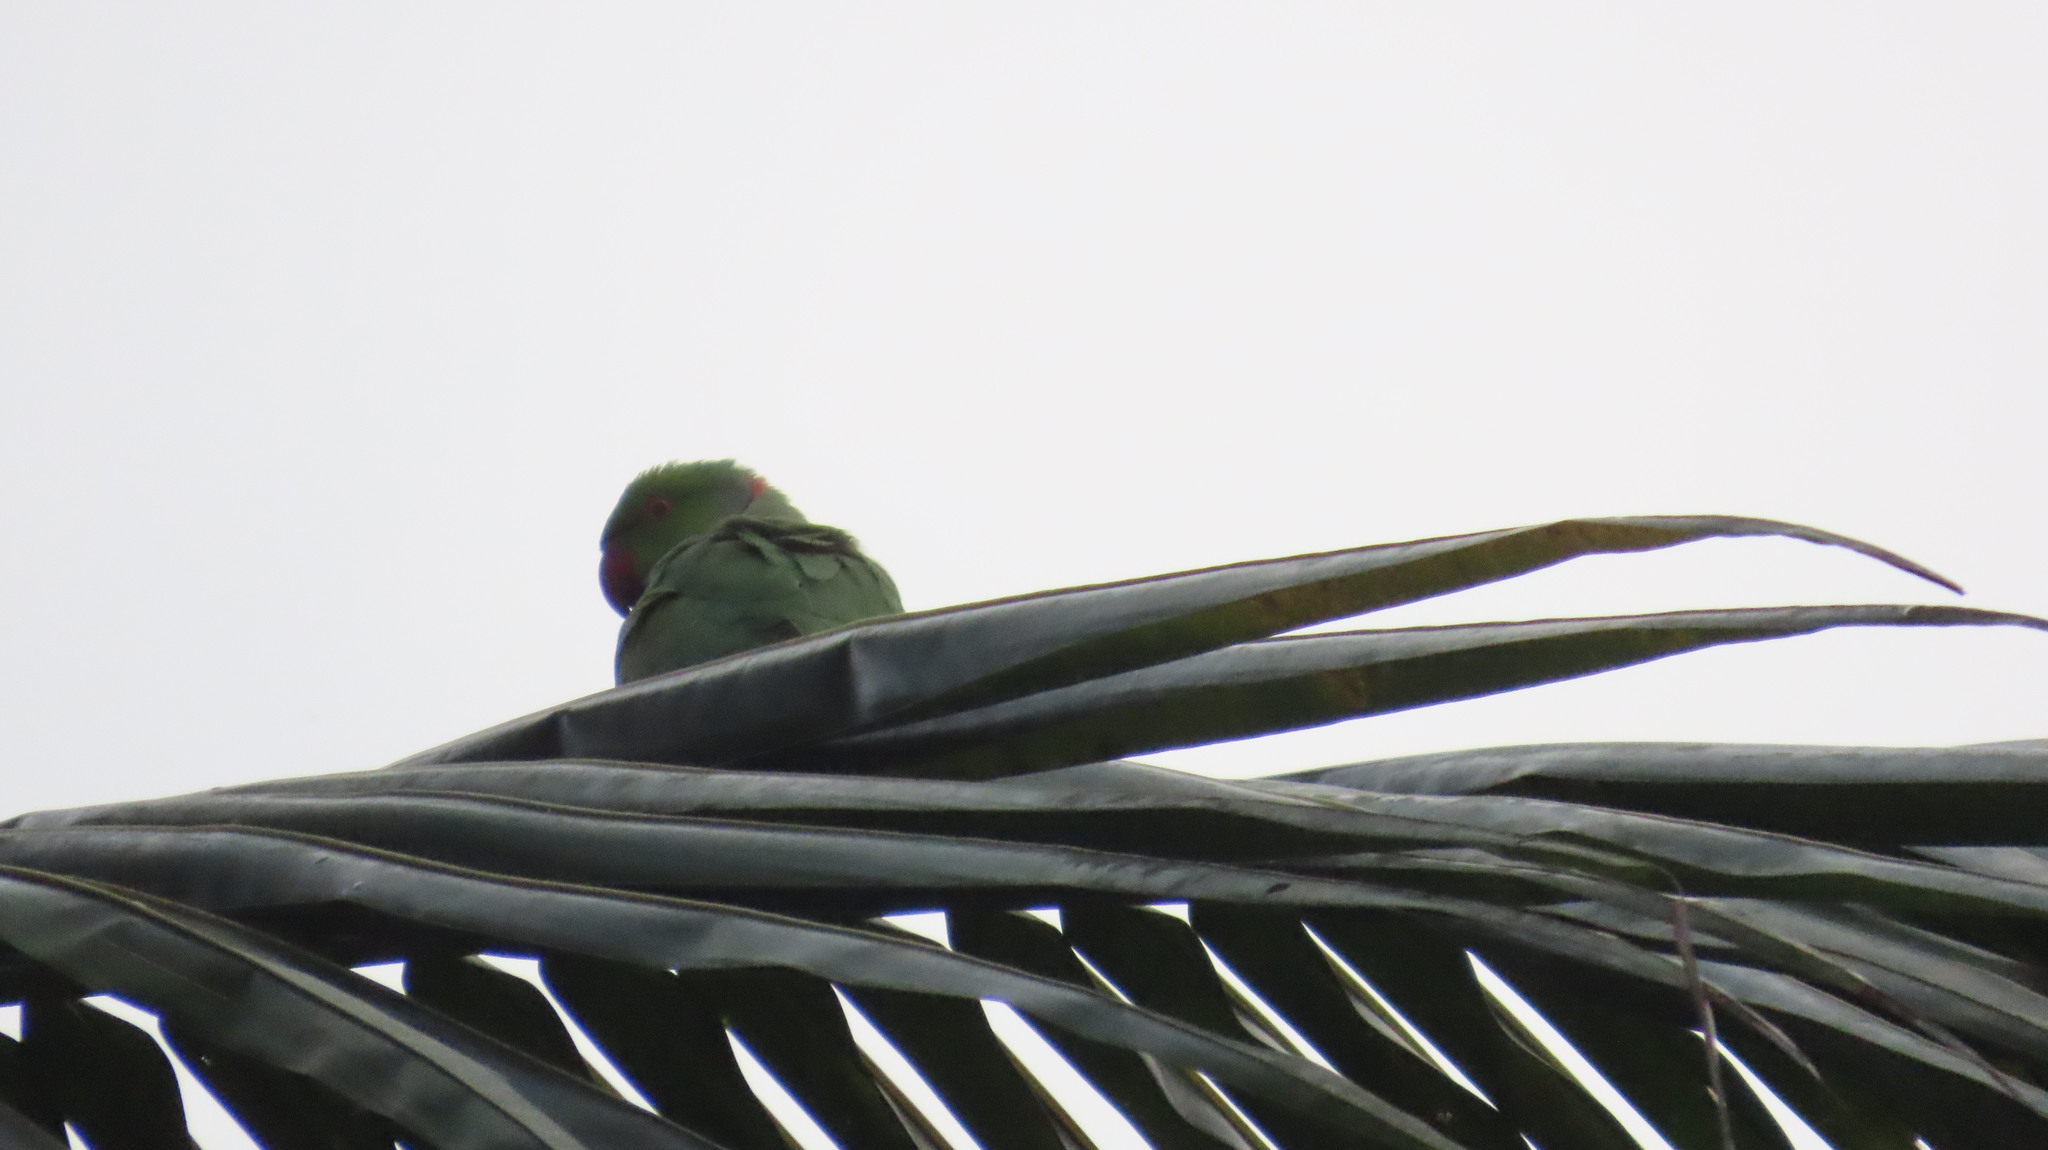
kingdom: Animalia
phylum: Chordata
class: Aves
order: Psittaciformes
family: Psittacidae
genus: Psittacula
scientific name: Psittacula krameri
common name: Rose-ringed parakeet
